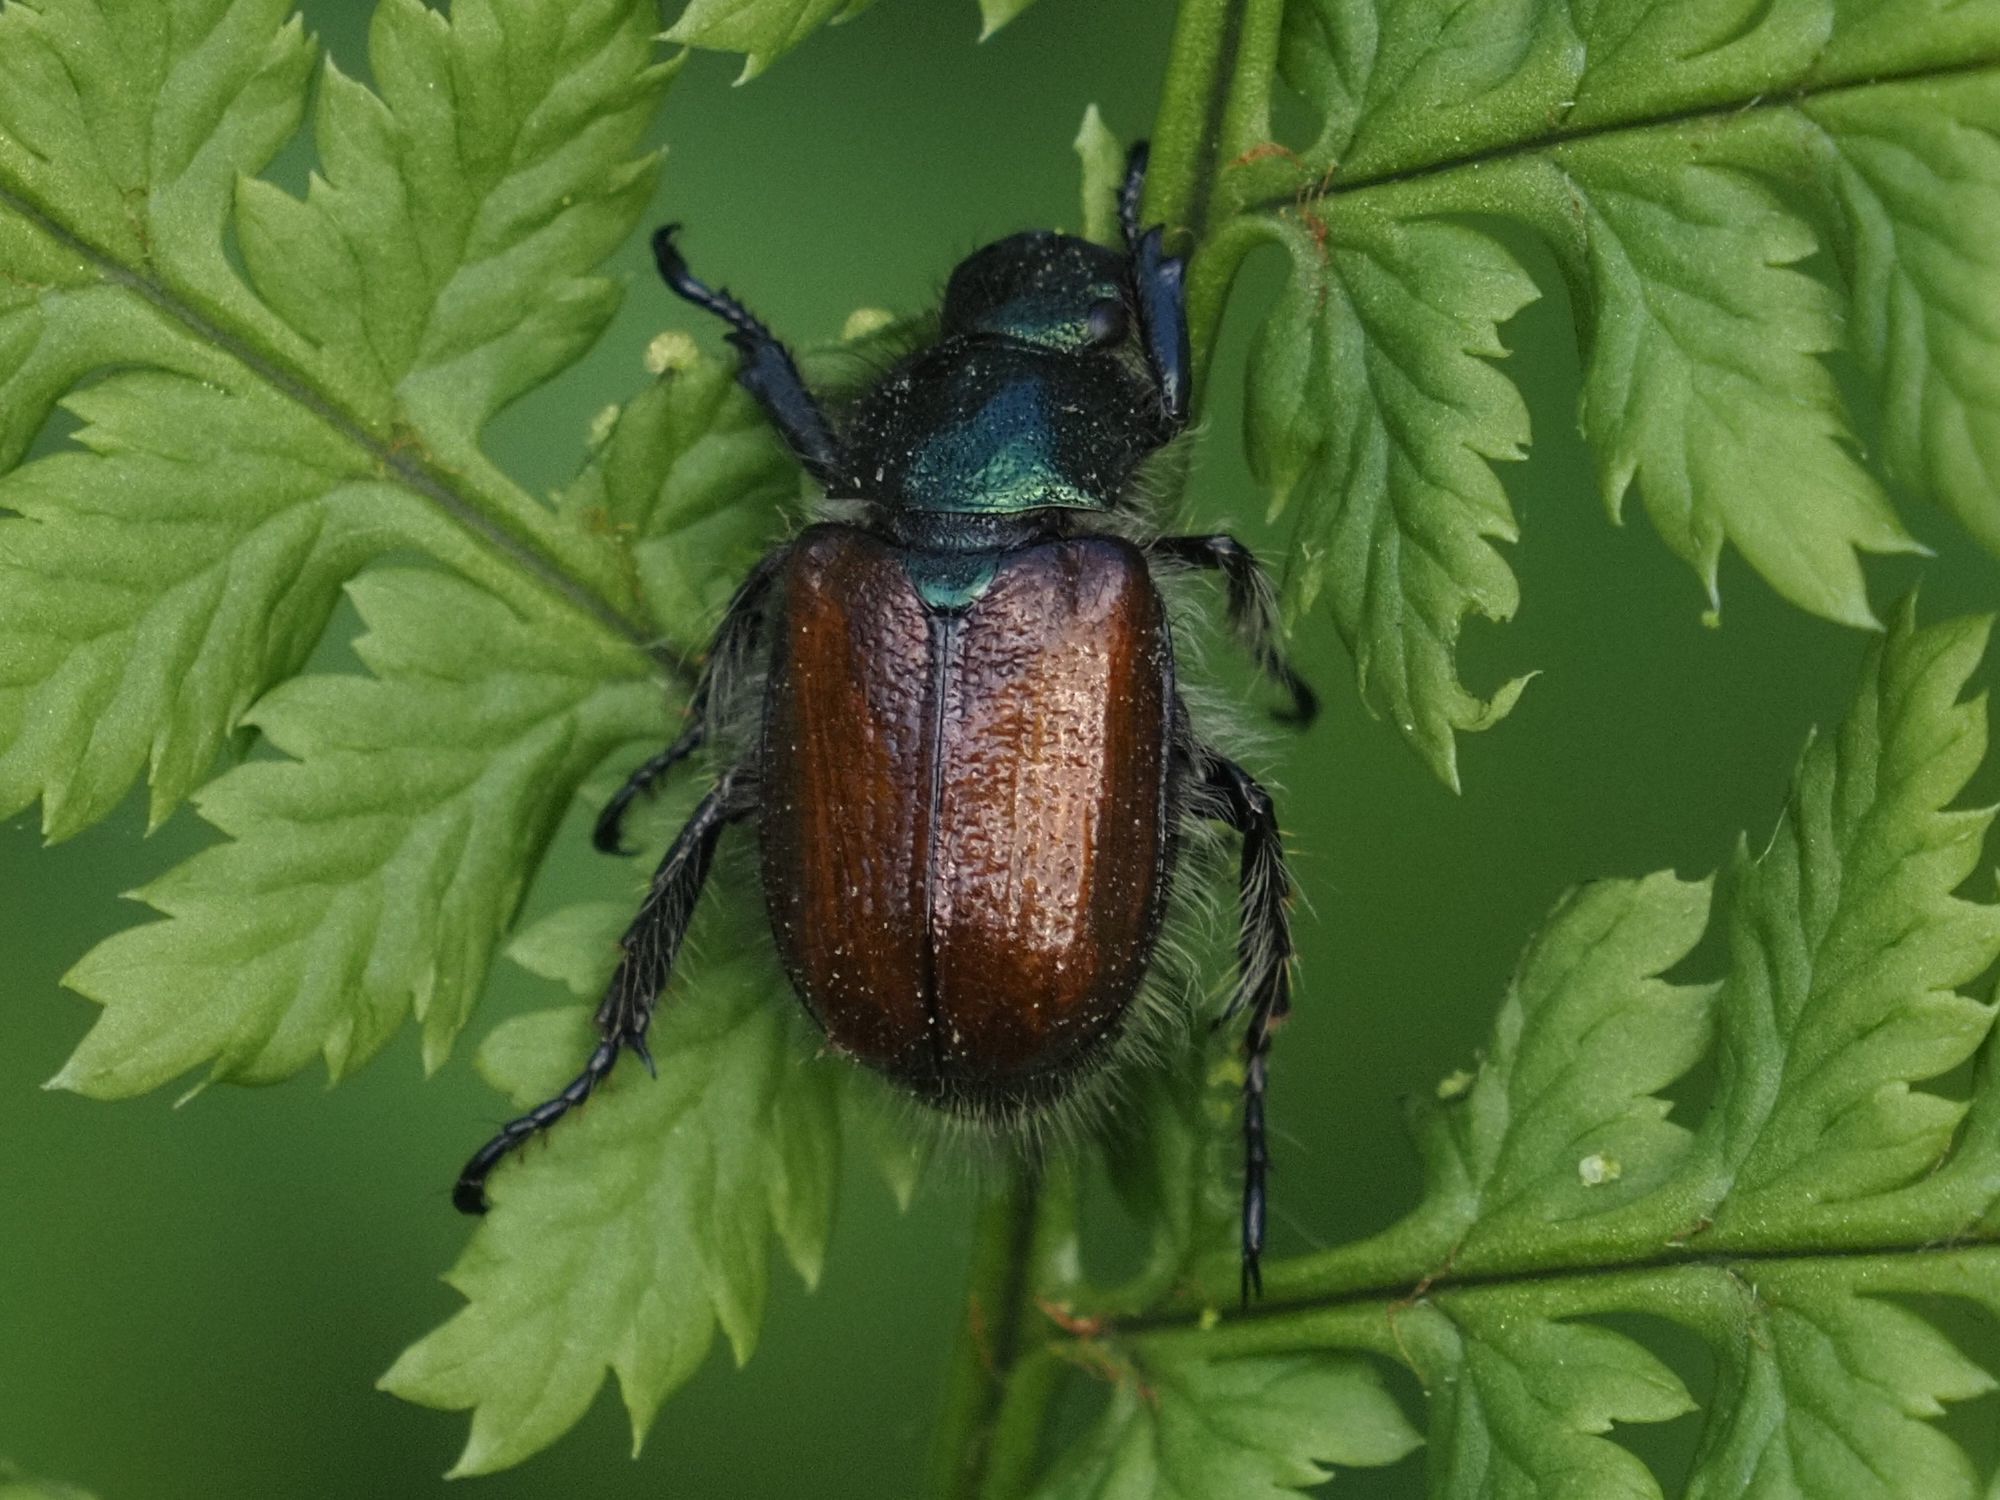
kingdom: Animalia
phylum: Arthropoda
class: Insecta
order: Coleoptera
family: Scarabaeidae
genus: Phyllopertha
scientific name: Phyllopertha horticola
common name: Garden chafer
